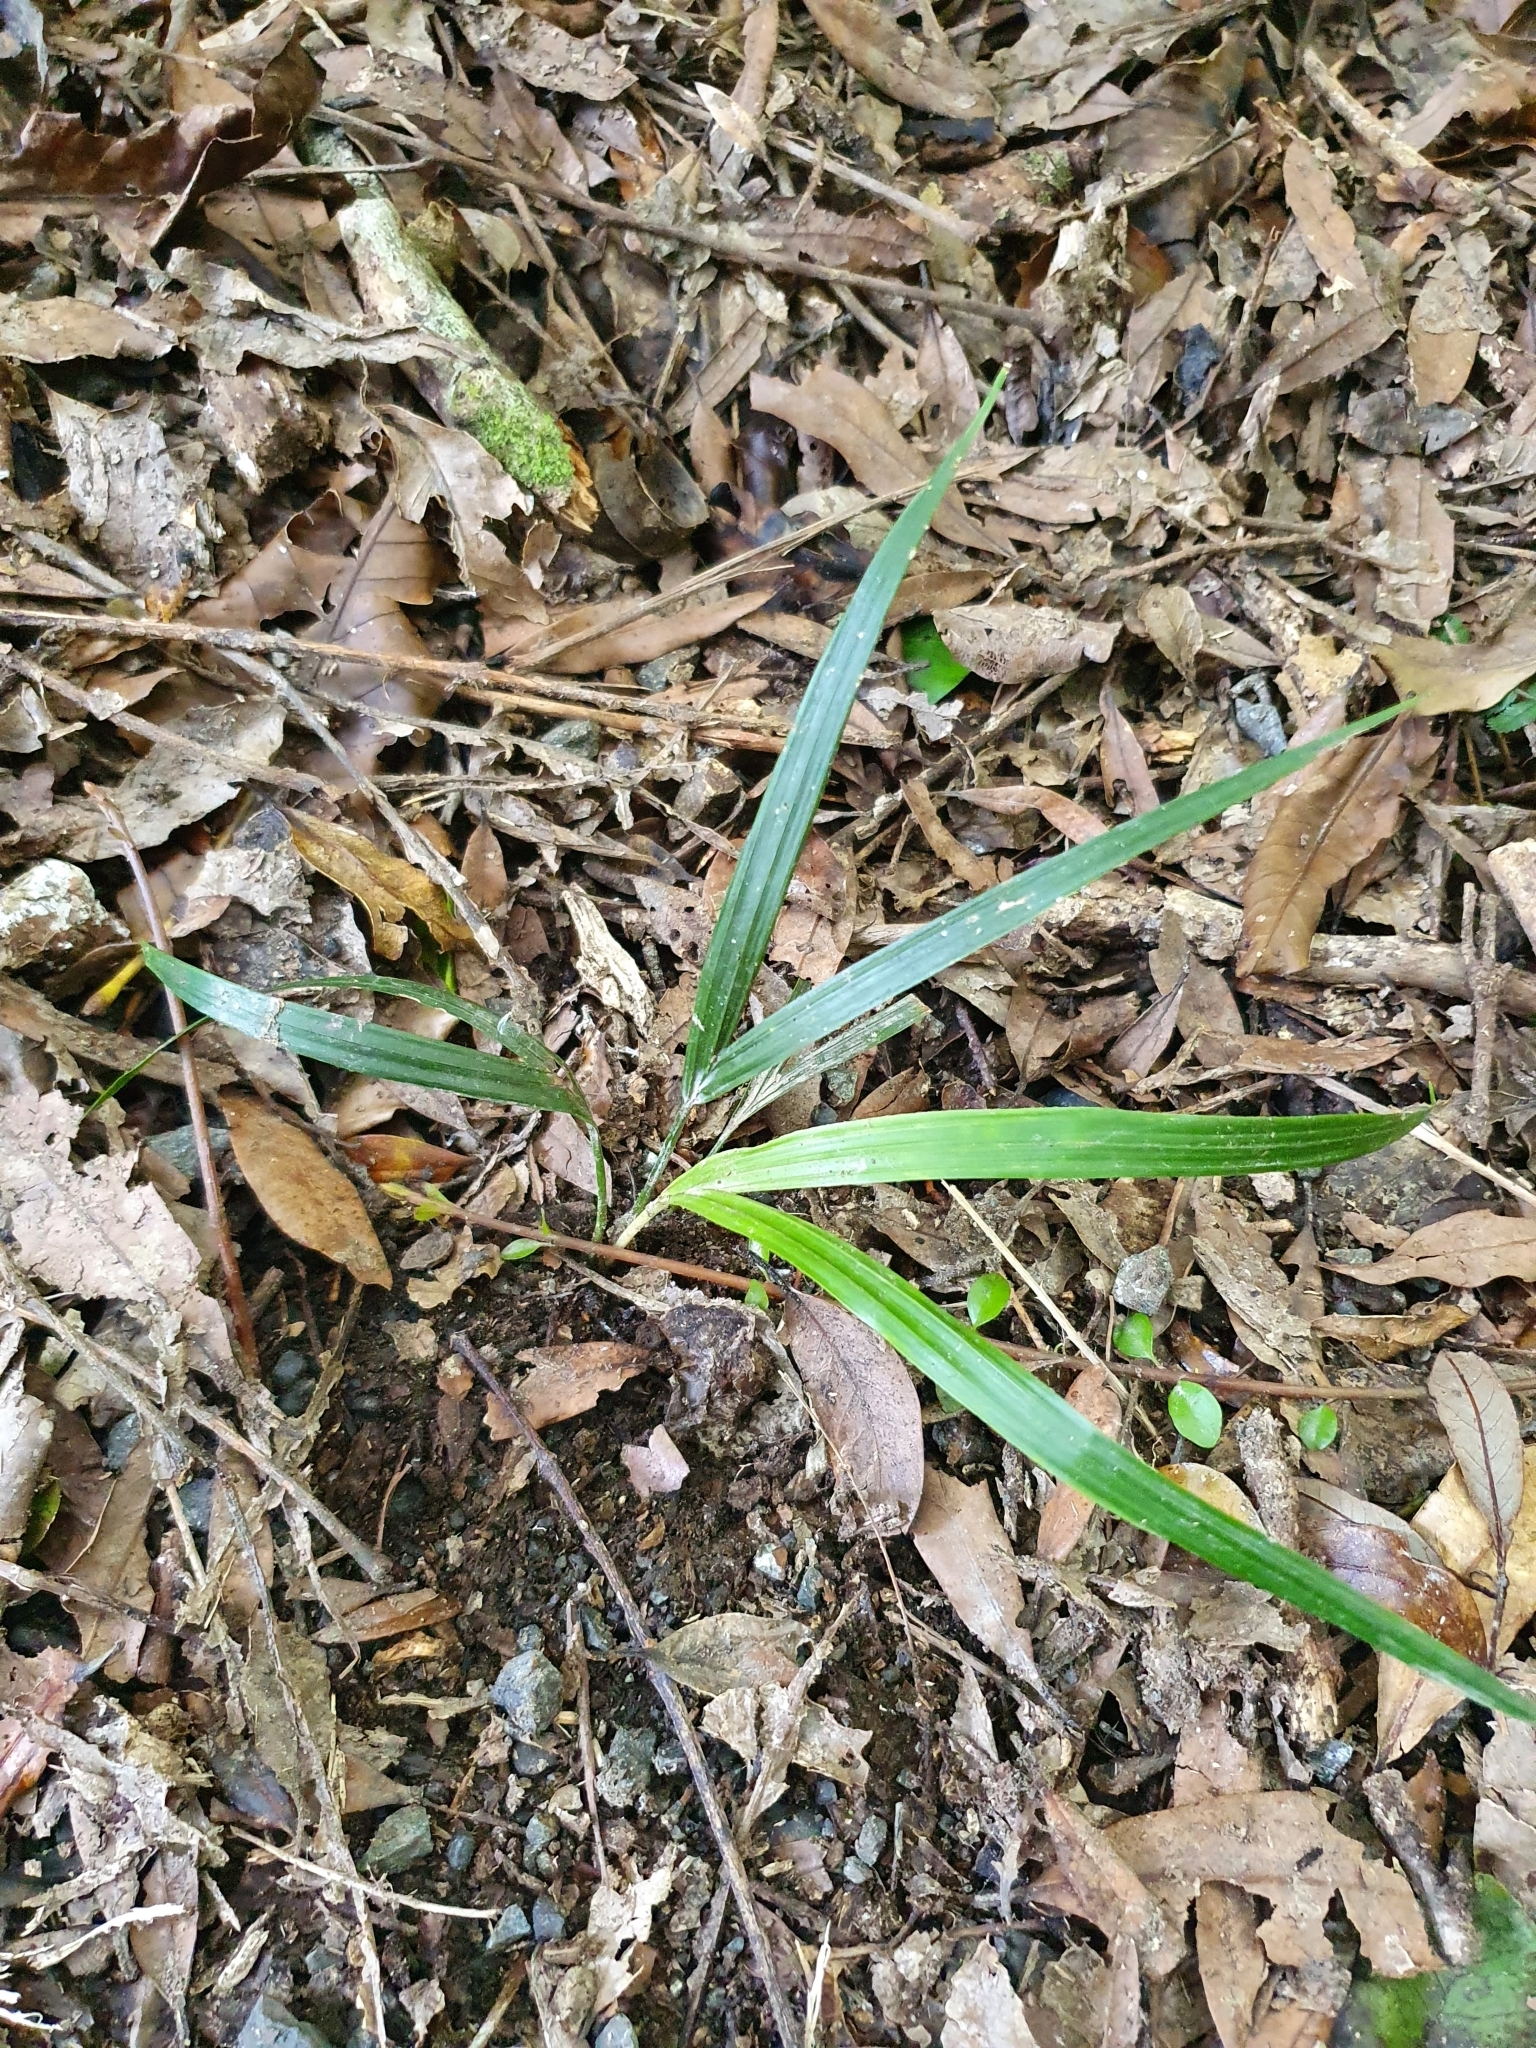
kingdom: Plantae
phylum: Tracheophyta
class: Liliopsida
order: Arecales
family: Arecaceae
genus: Rhopalostylis
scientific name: Rhopalostylis sapida
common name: Feather-duster palm
